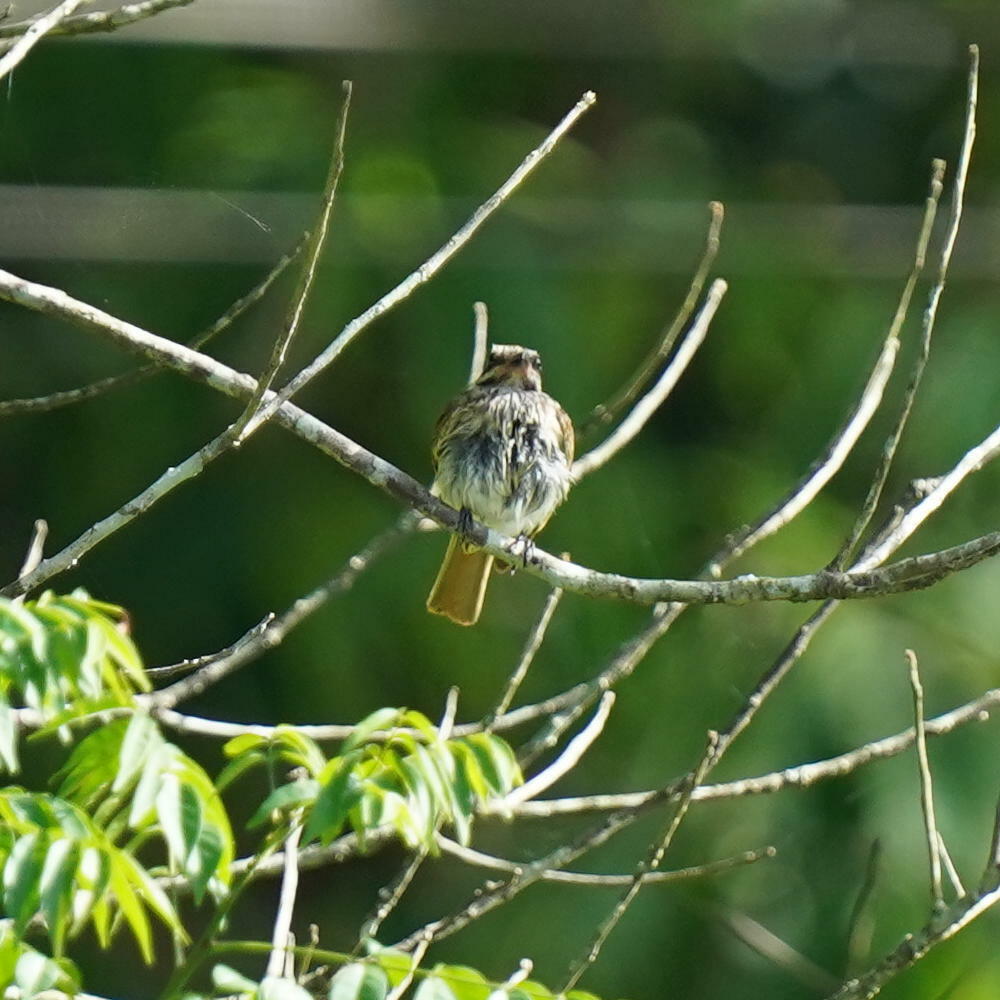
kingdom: Animalia
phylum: Chordata
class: Aves
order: Passeriformes
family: Tyrannidae
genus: Myiodynastes
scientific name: Myiodynastes maculatus
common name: Streaked flycatcher
